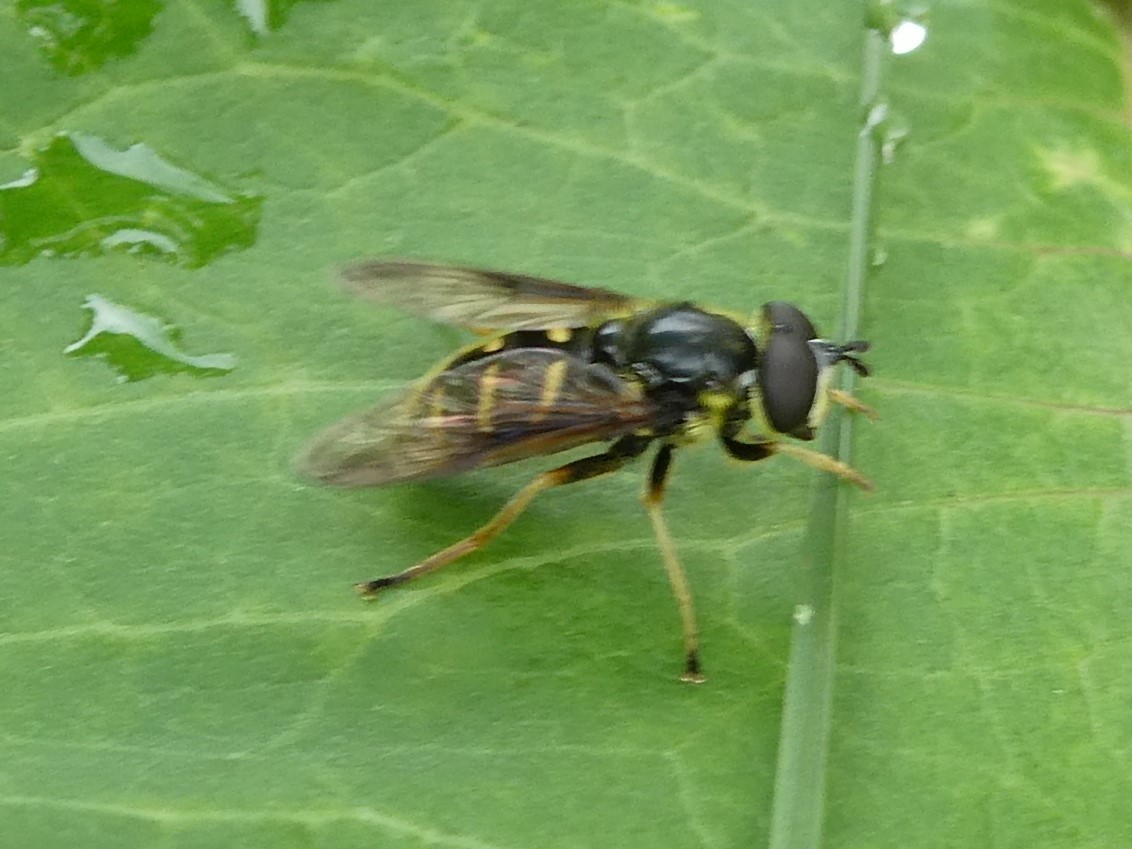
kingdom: Animalia
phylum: Arthropoda
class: Insecta
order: Diptera
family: Syrphidae
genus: Sericomyia
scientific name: Sericomyia chrysotoxoides
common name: Oblique-banded pond fly
